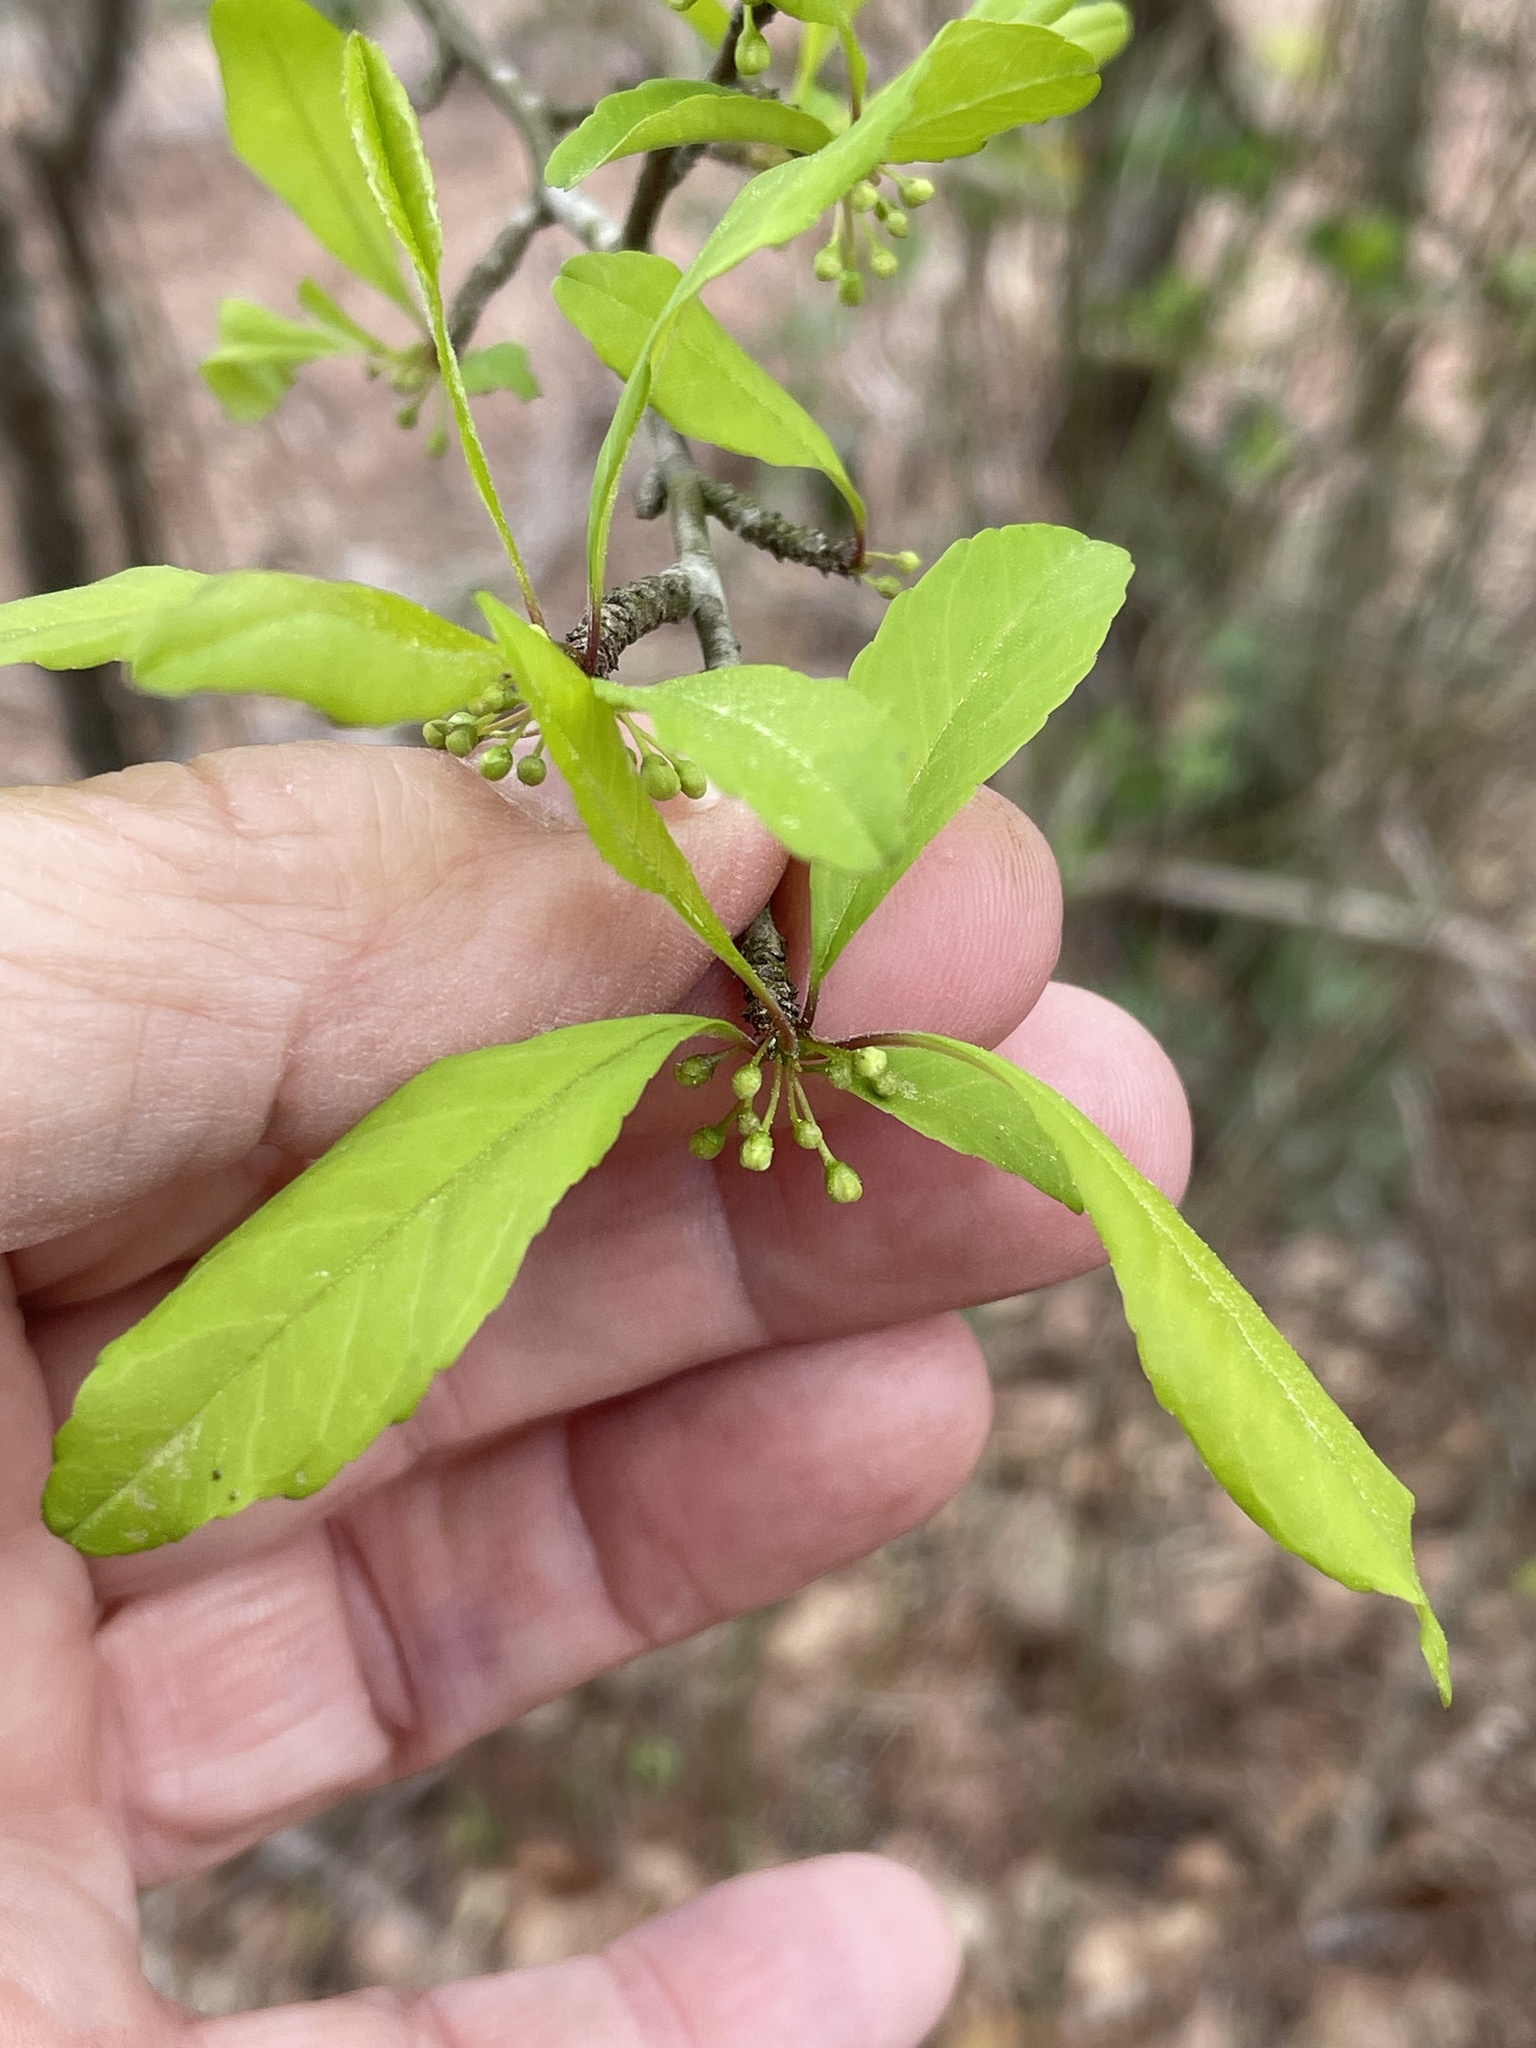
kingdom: Plantae
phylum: Tracheophyta
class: Magnoliopsida
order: Aquifoliales
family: Aquifoliaceae
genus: Ilex
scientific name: Ilex decidua
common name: Possum-haw
